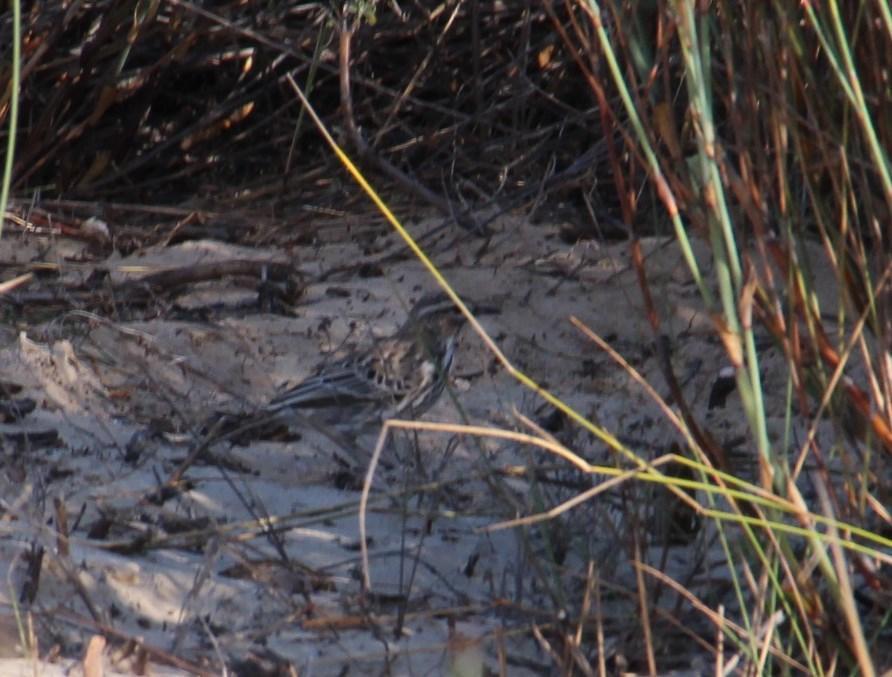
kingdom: Animalia
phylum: Chordata
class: Aves
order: Passeriformes
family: Alaudidae
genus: Calendulauda
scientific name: Calendulauda albescens
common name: Karoo lark
